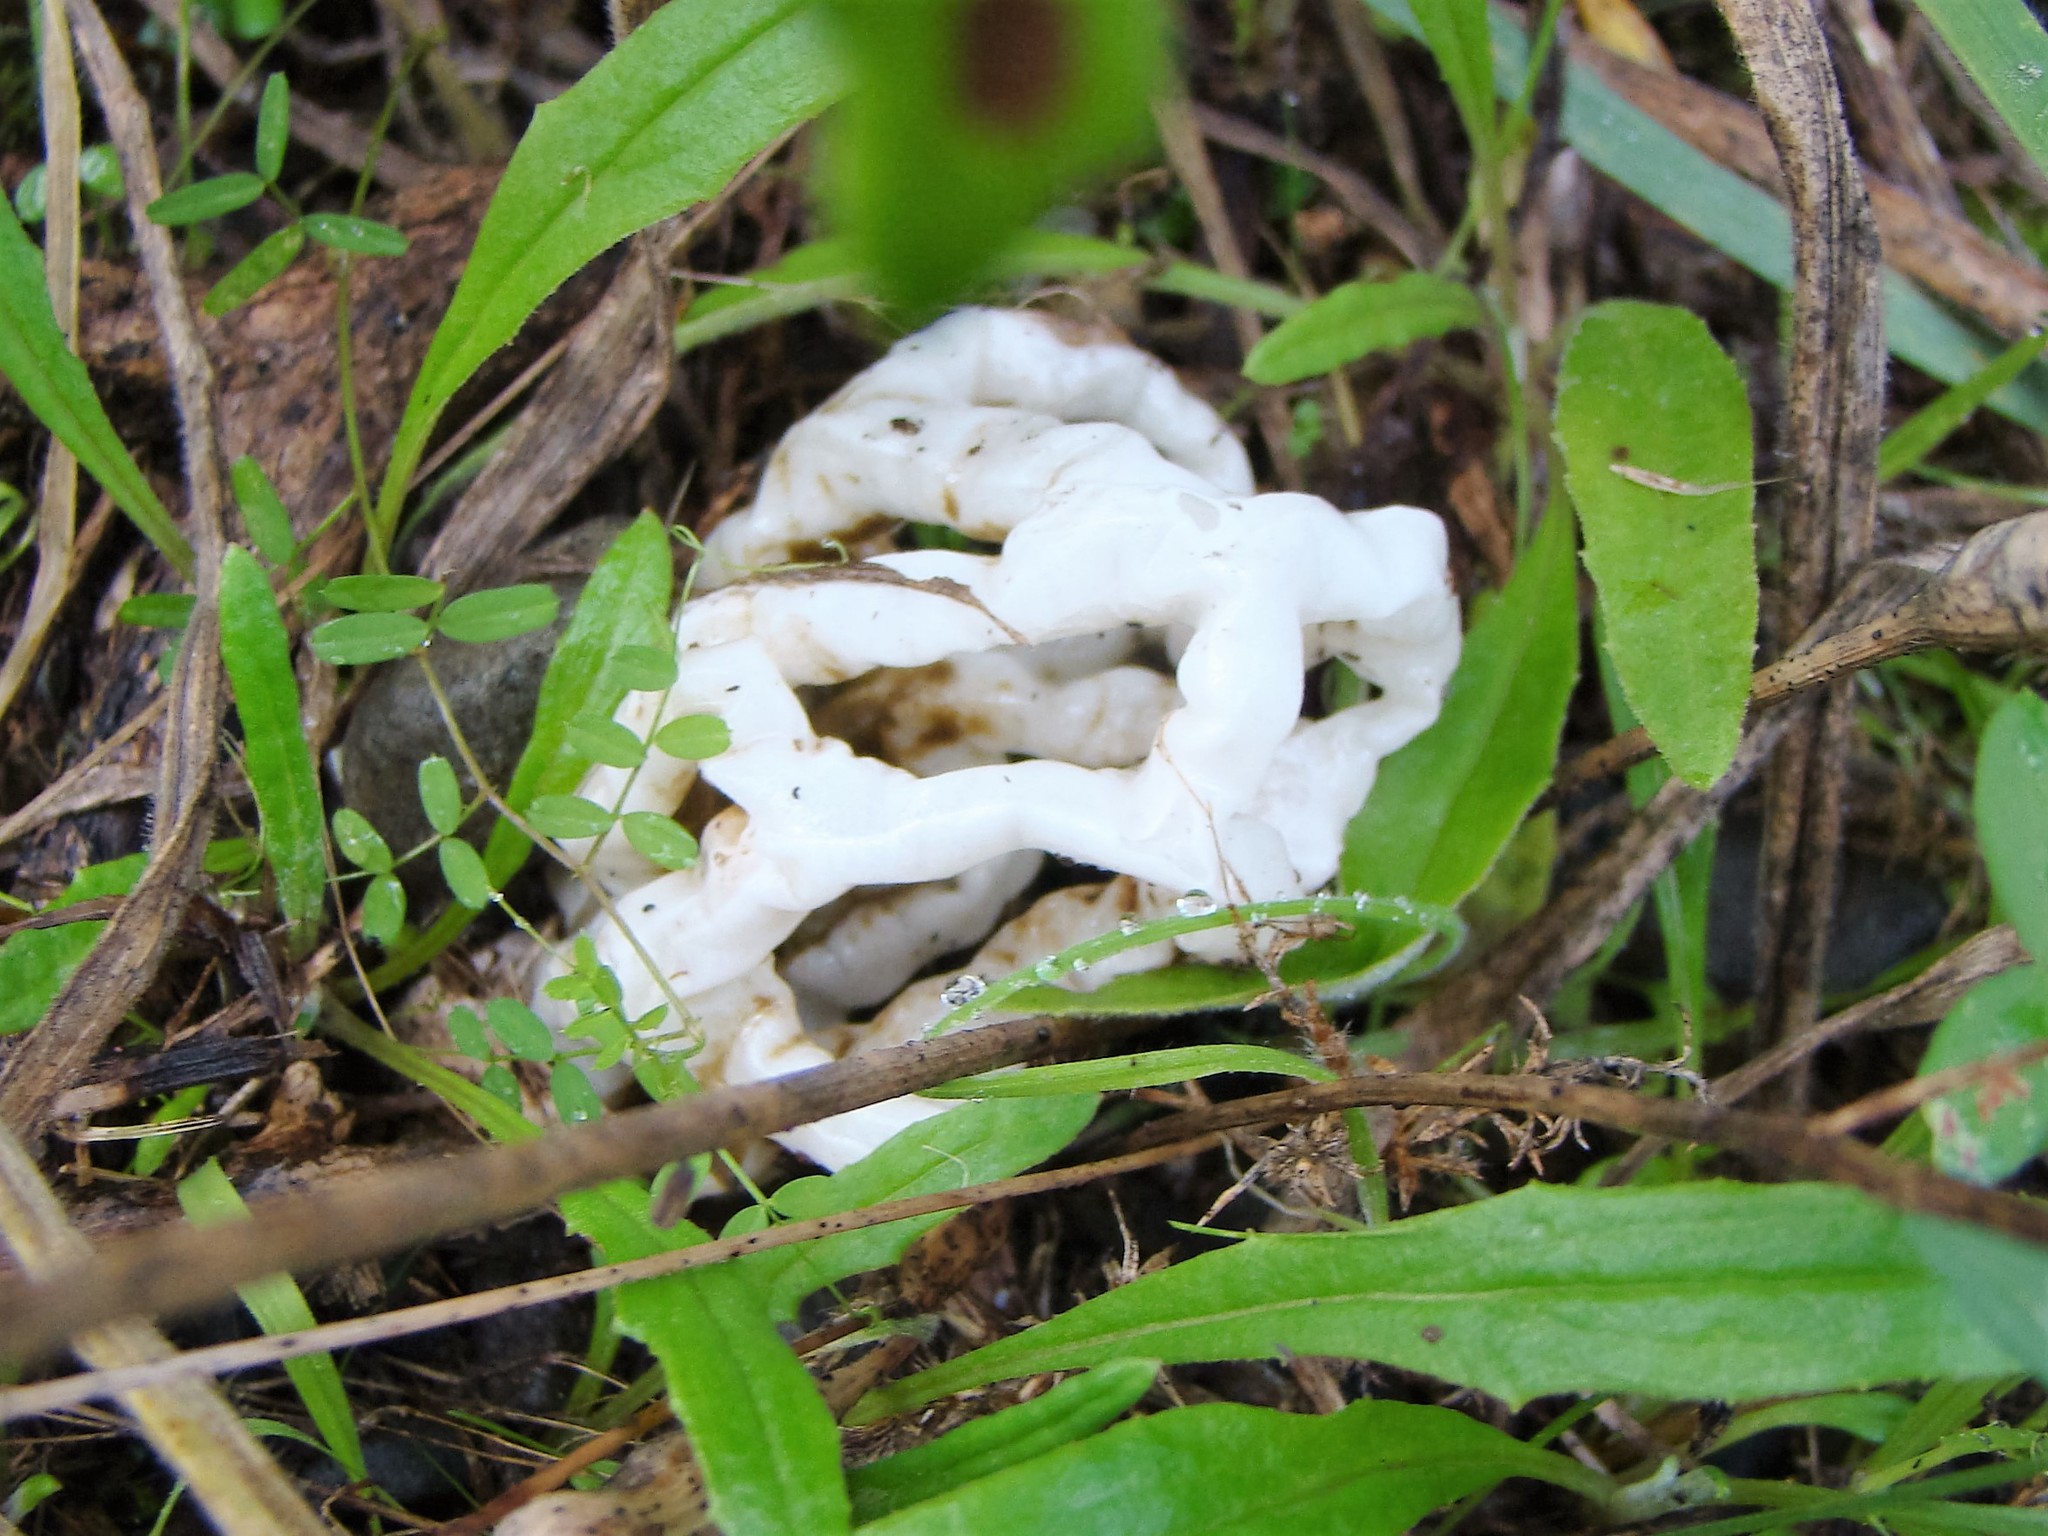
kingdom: Fungi
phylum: Basidiomycota
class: Agaricomycetes
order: Phallales
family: Phallaceae
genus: Ileodictyon
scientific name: Ileodictyon cibarium
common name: Basket fungus
